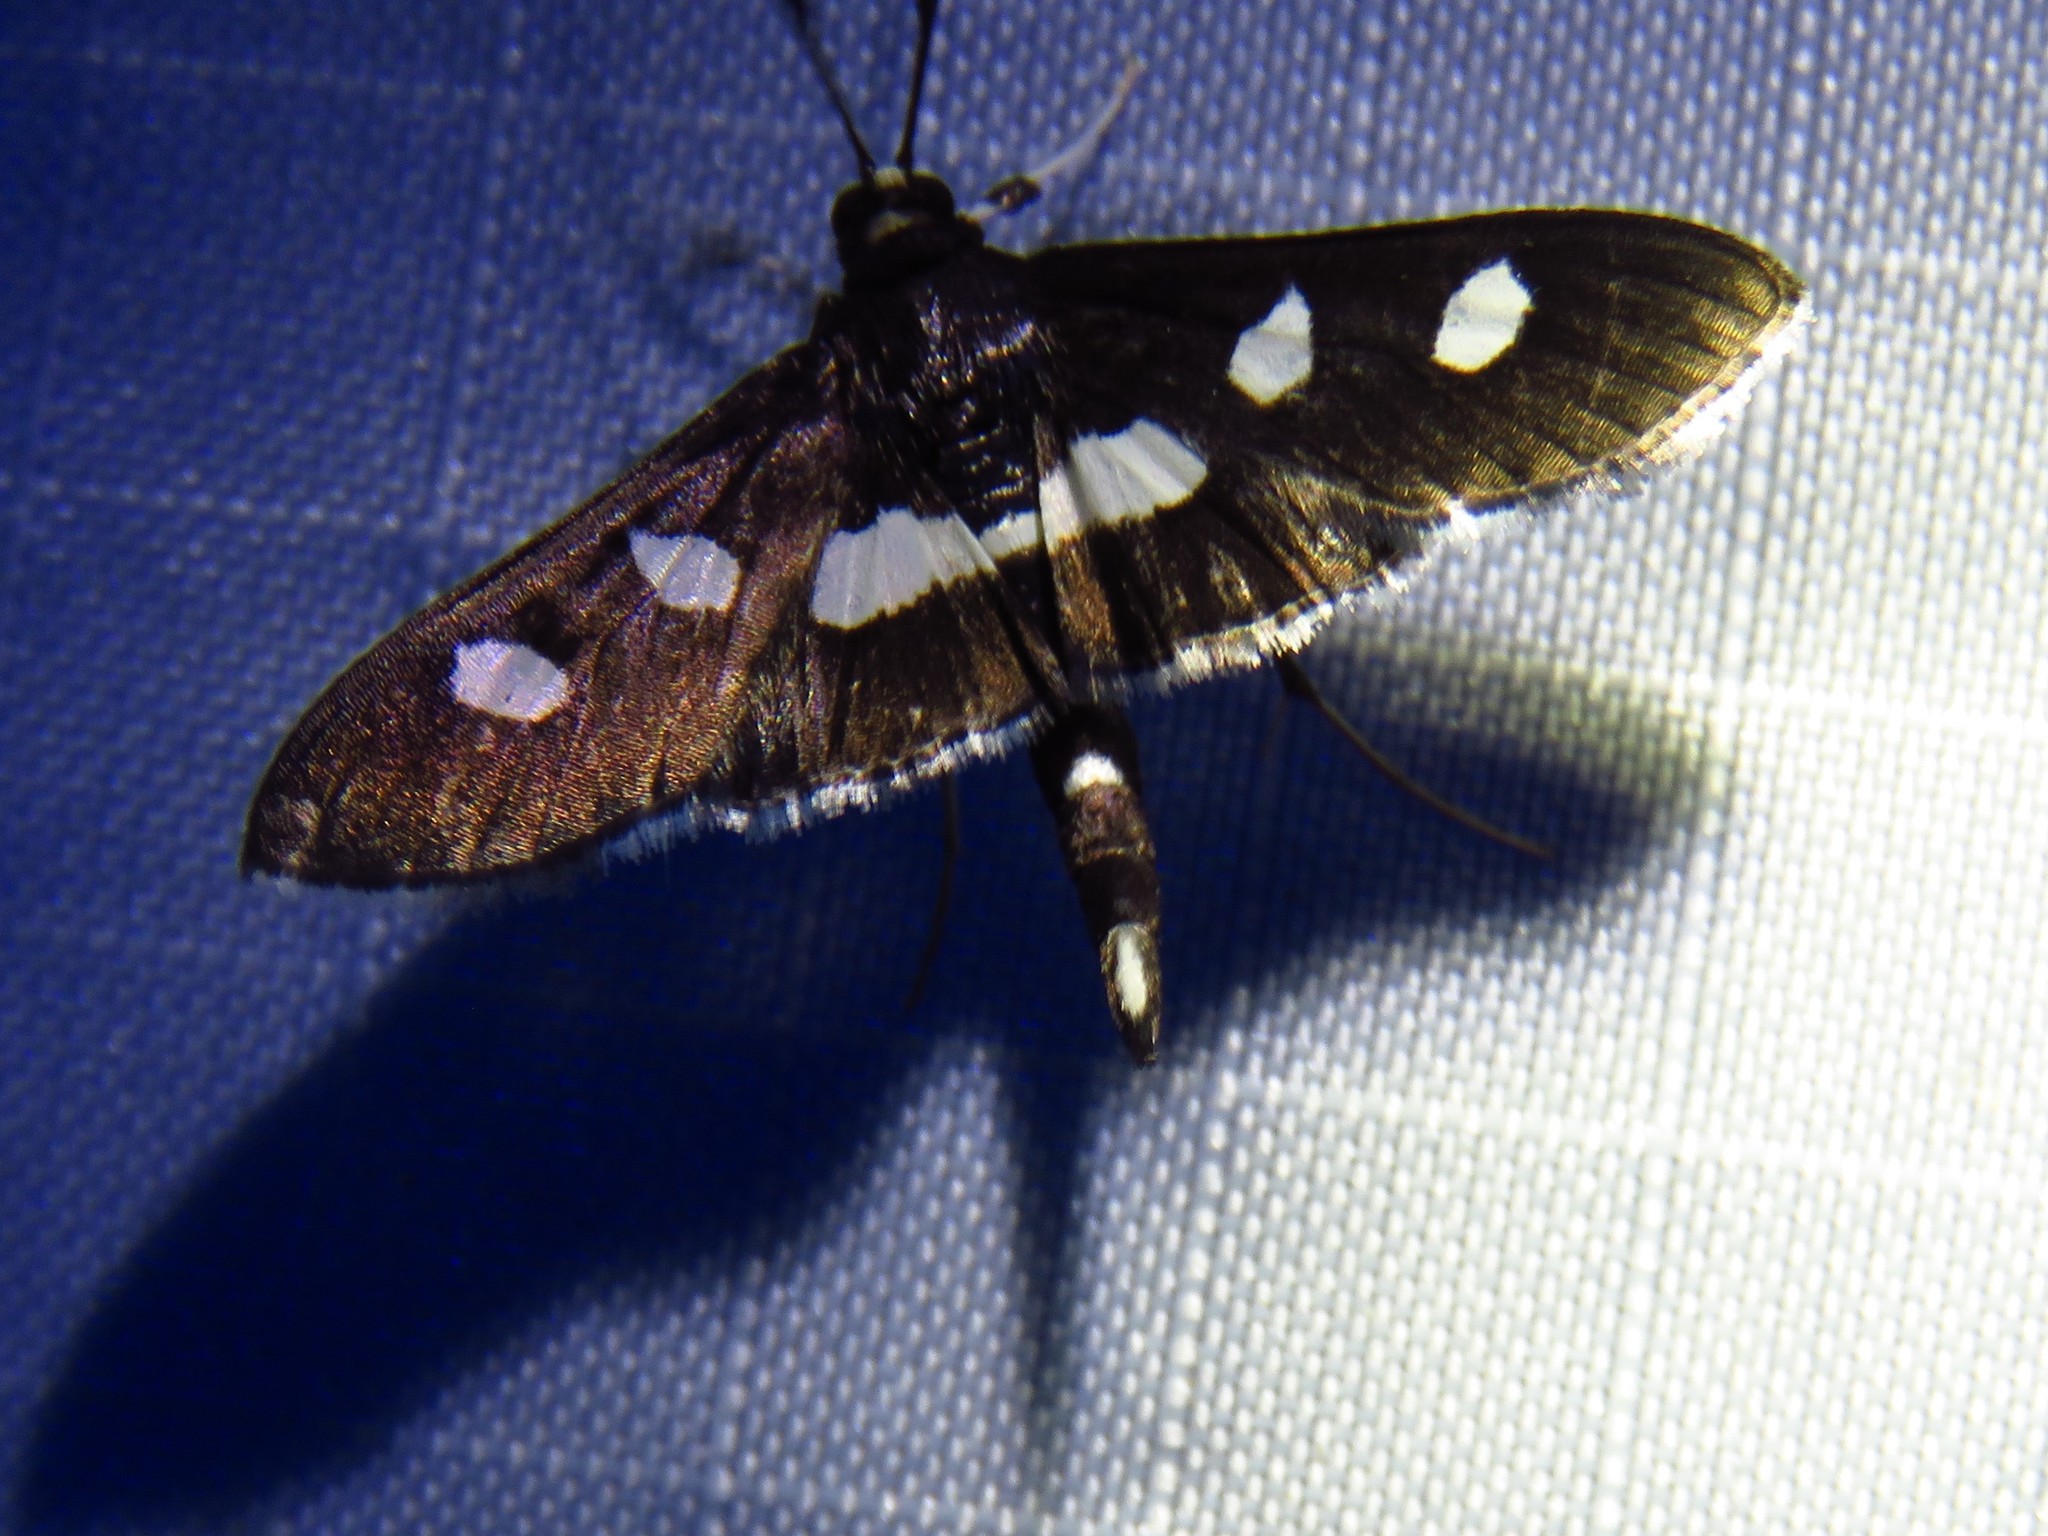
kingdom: Animalia
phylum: Arthropoda
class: Insecta
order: Lepidoptera
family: Crambidae
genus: Desmia
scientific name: Desmia
